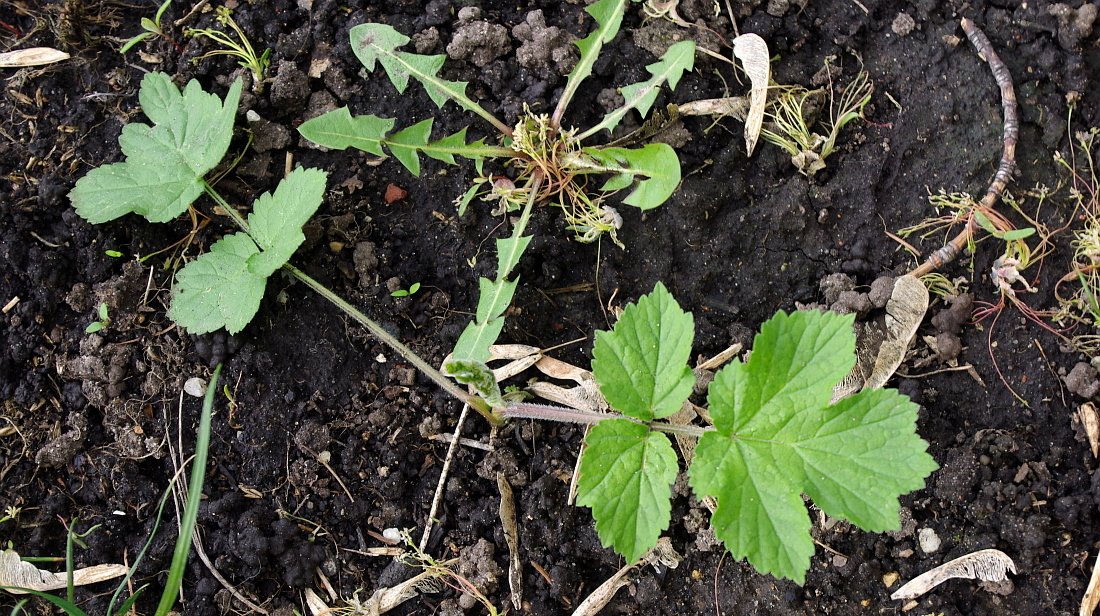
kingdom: Plantae
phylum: Tracheophyta
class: Magnoliopsida
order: Apiales
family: Apiaceae
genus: Heracleum
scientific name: Heracleum sphondylium
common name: Hogweed
